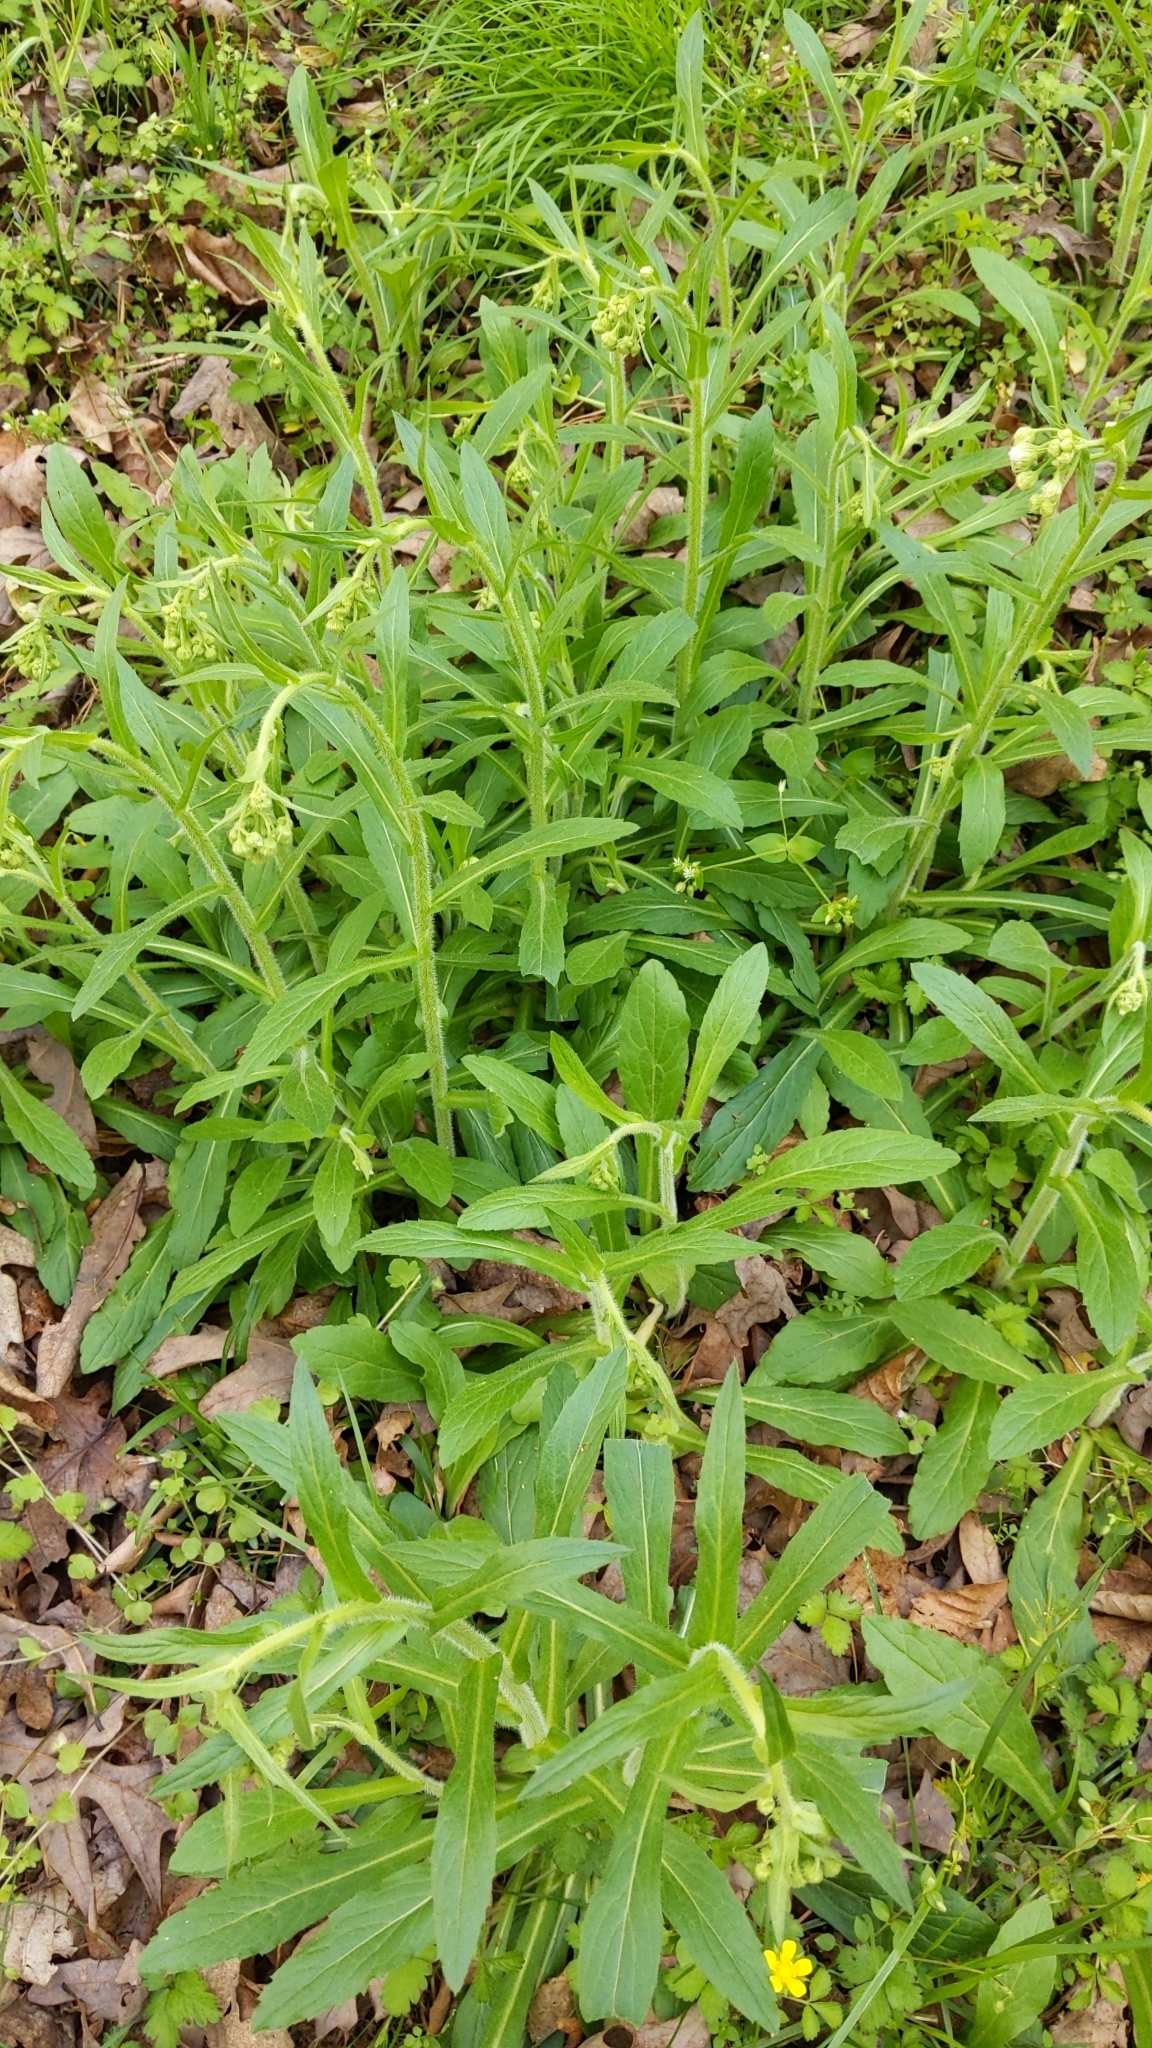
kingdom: Plantae
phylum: Tracheophyta
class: Magnoliopsida
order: Asterales
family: Asteraceae
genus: Erigeron
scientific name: Erigeron philadelphicus
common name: Robin's-plantain
